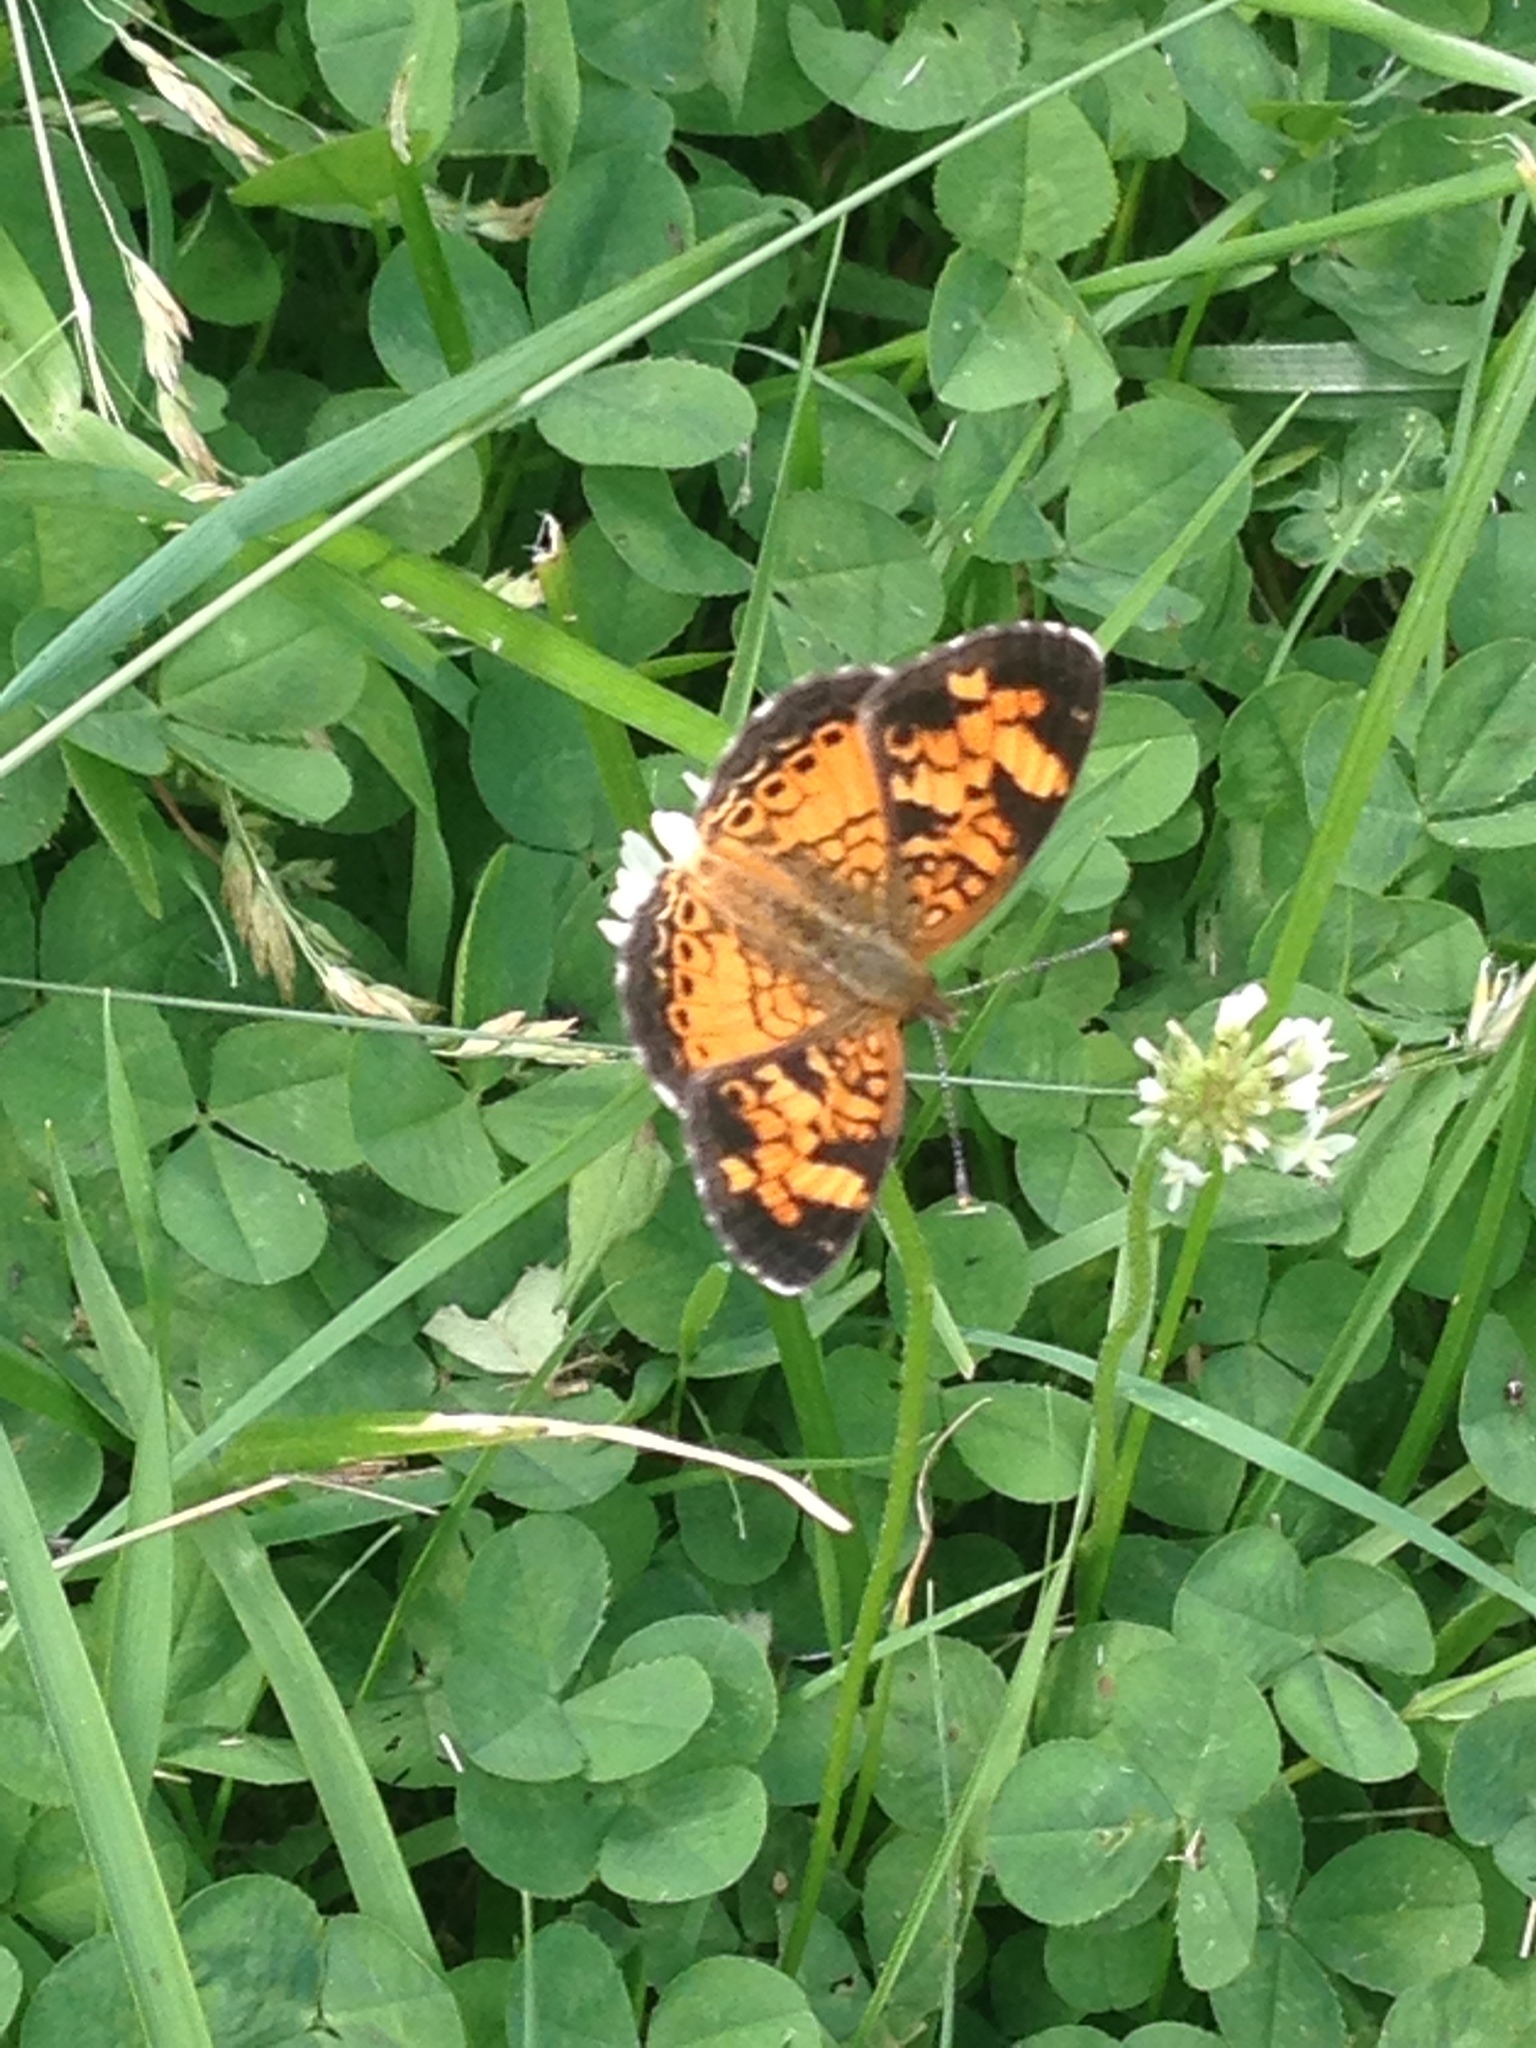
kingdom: Animalia
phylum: Arthropoda
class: Insecta
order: Lepidoptera
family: Nymphalidae
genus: Phyciodes
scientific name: Phyciodes tharos
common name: Pearl crescent
